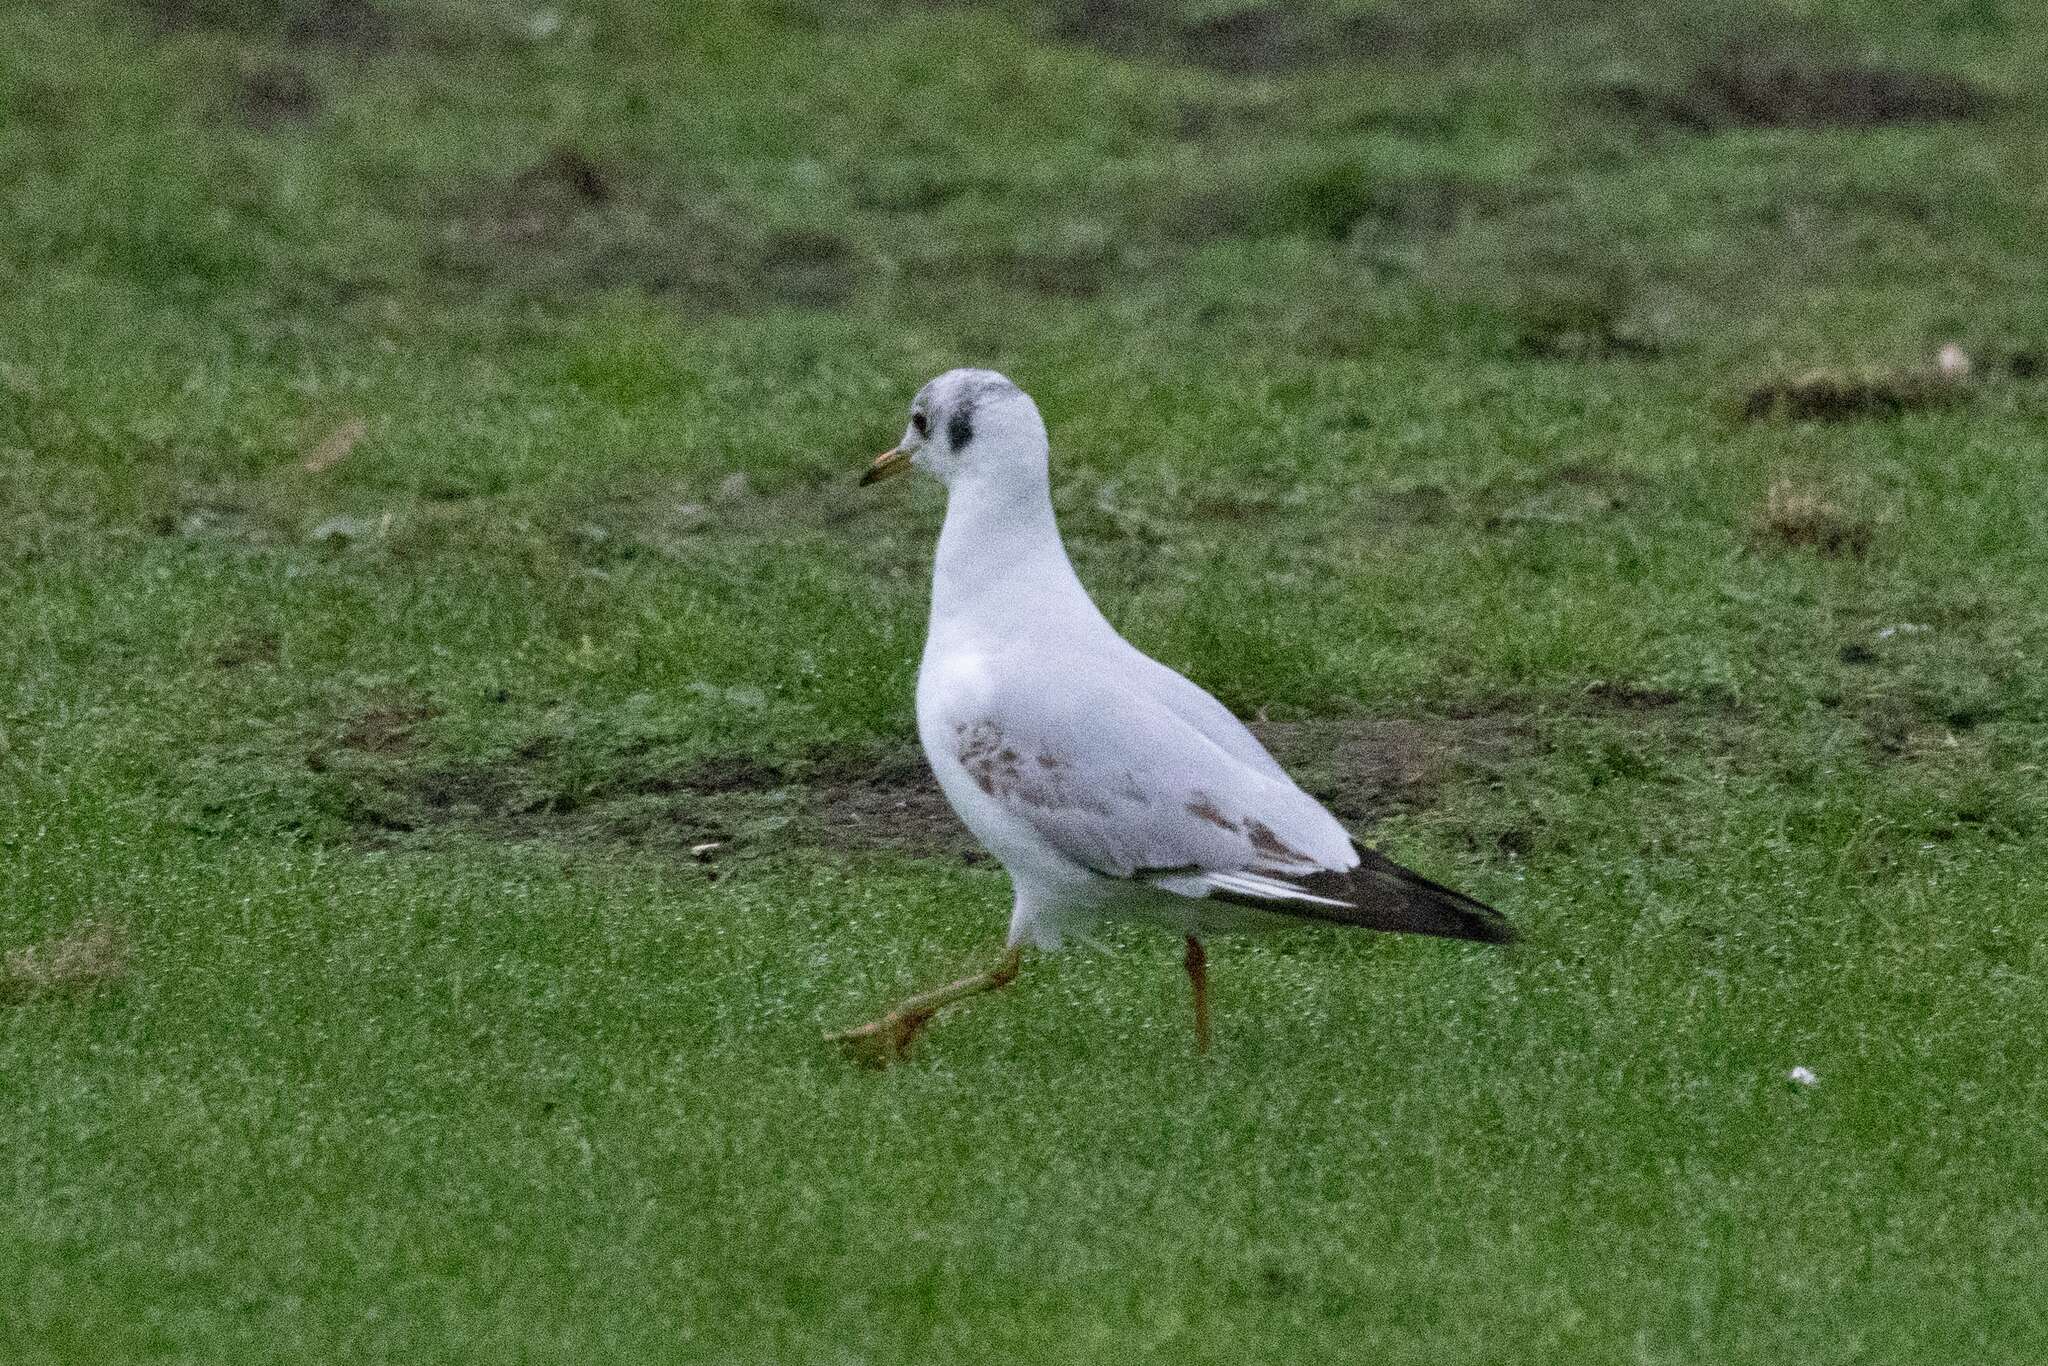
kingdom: Animalia
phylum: Chordata
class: Aves
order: Charadriiformes
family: Laridae
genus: Chroicocephalus
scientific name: Chroicocephalus ridibundus
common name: Black-headed gull
